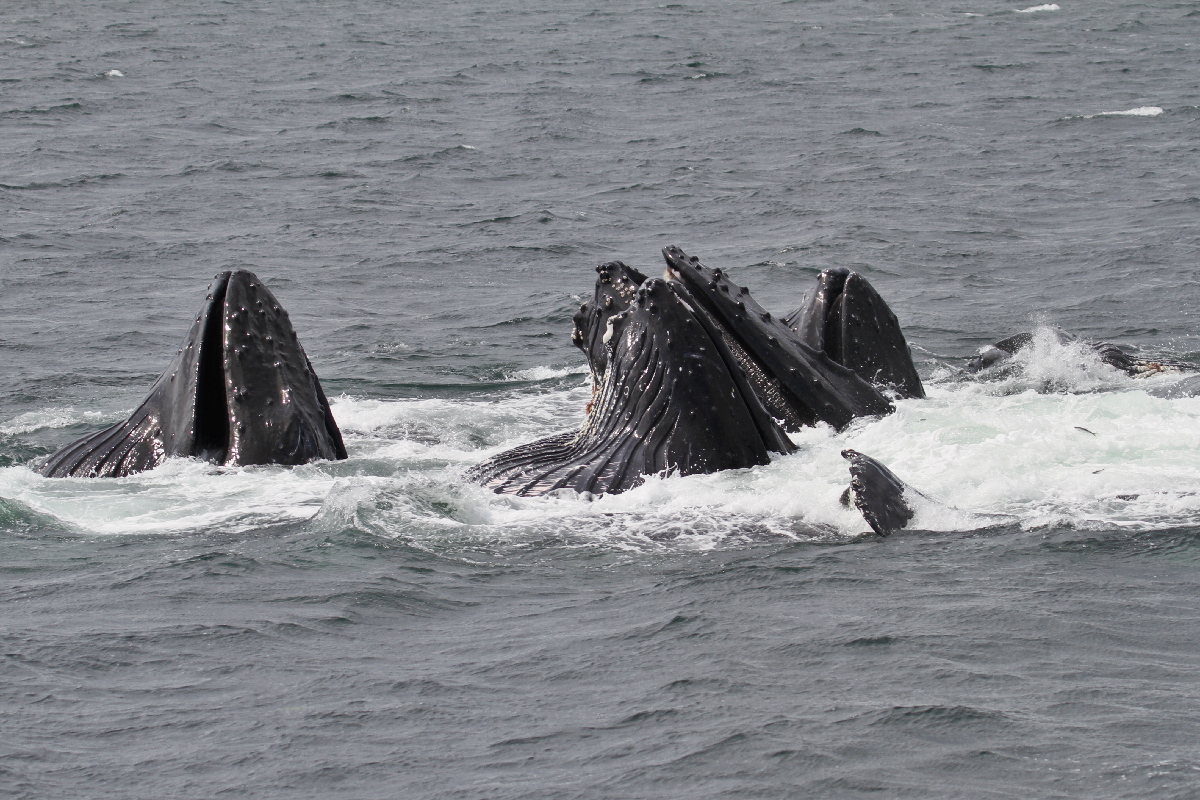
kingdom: Animalia
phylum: Chordata
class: Mammalia
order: Cetacea
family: Balaenopteridae
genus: Megaptera
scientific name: Megaptera novaeangliae
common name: Humpback whale
